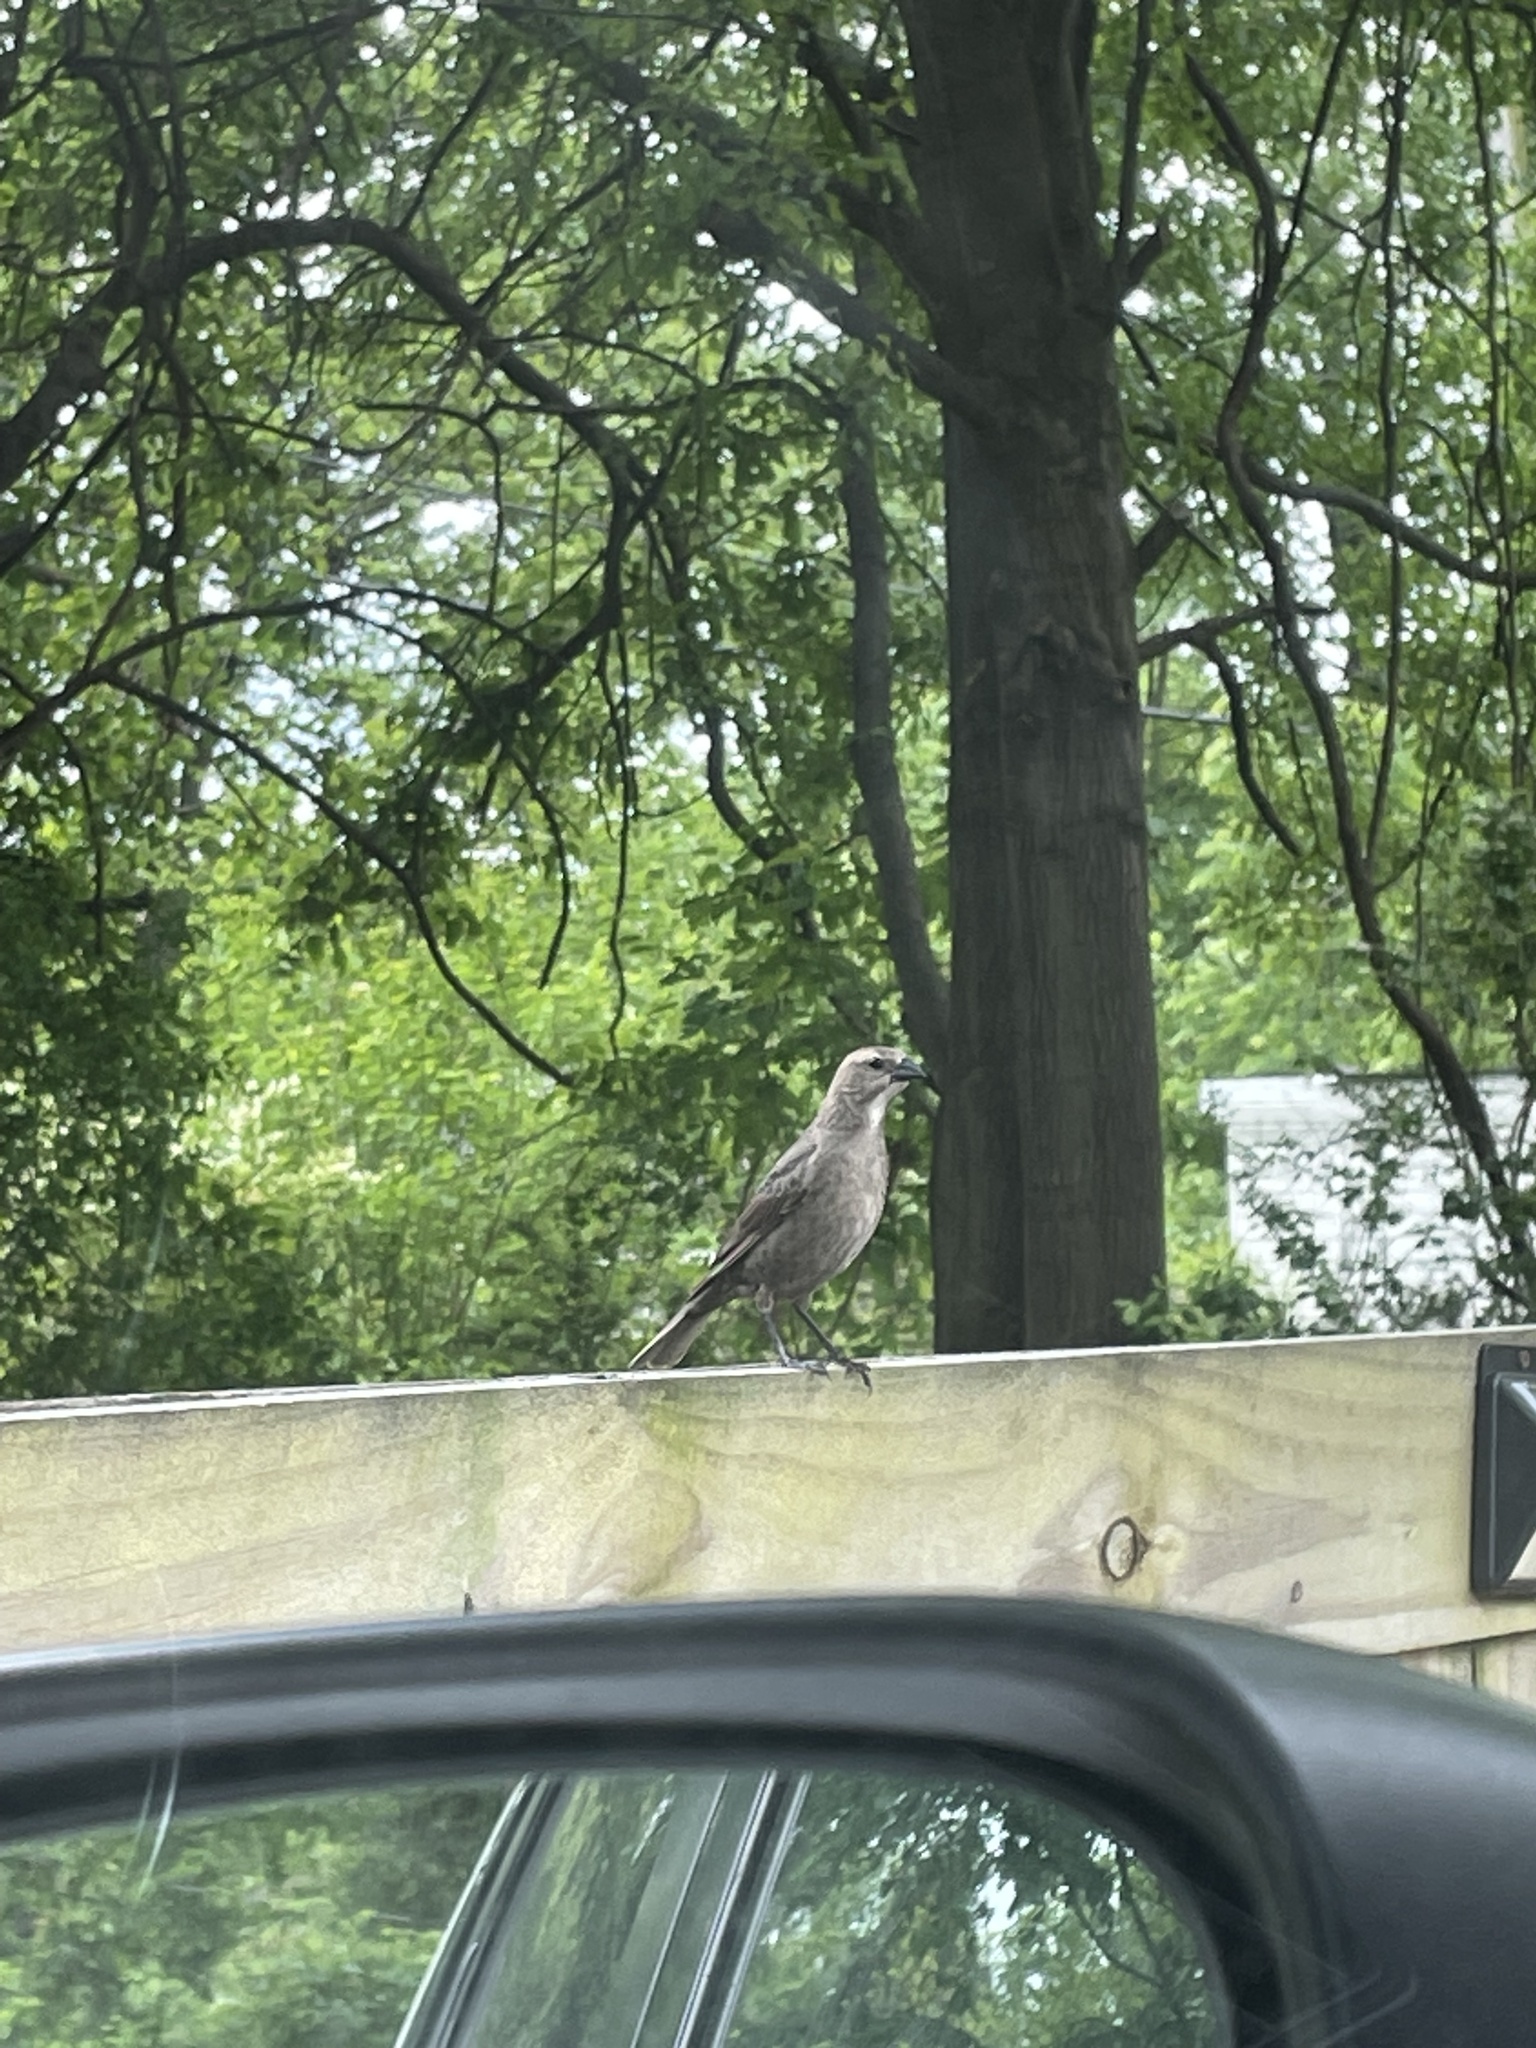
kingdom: Animalia
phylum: Chordata
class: Aves
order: Passeriformes
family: Icteridae
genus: Molothrus
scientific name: Molothrus ater
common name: Brown-headed cowbird
